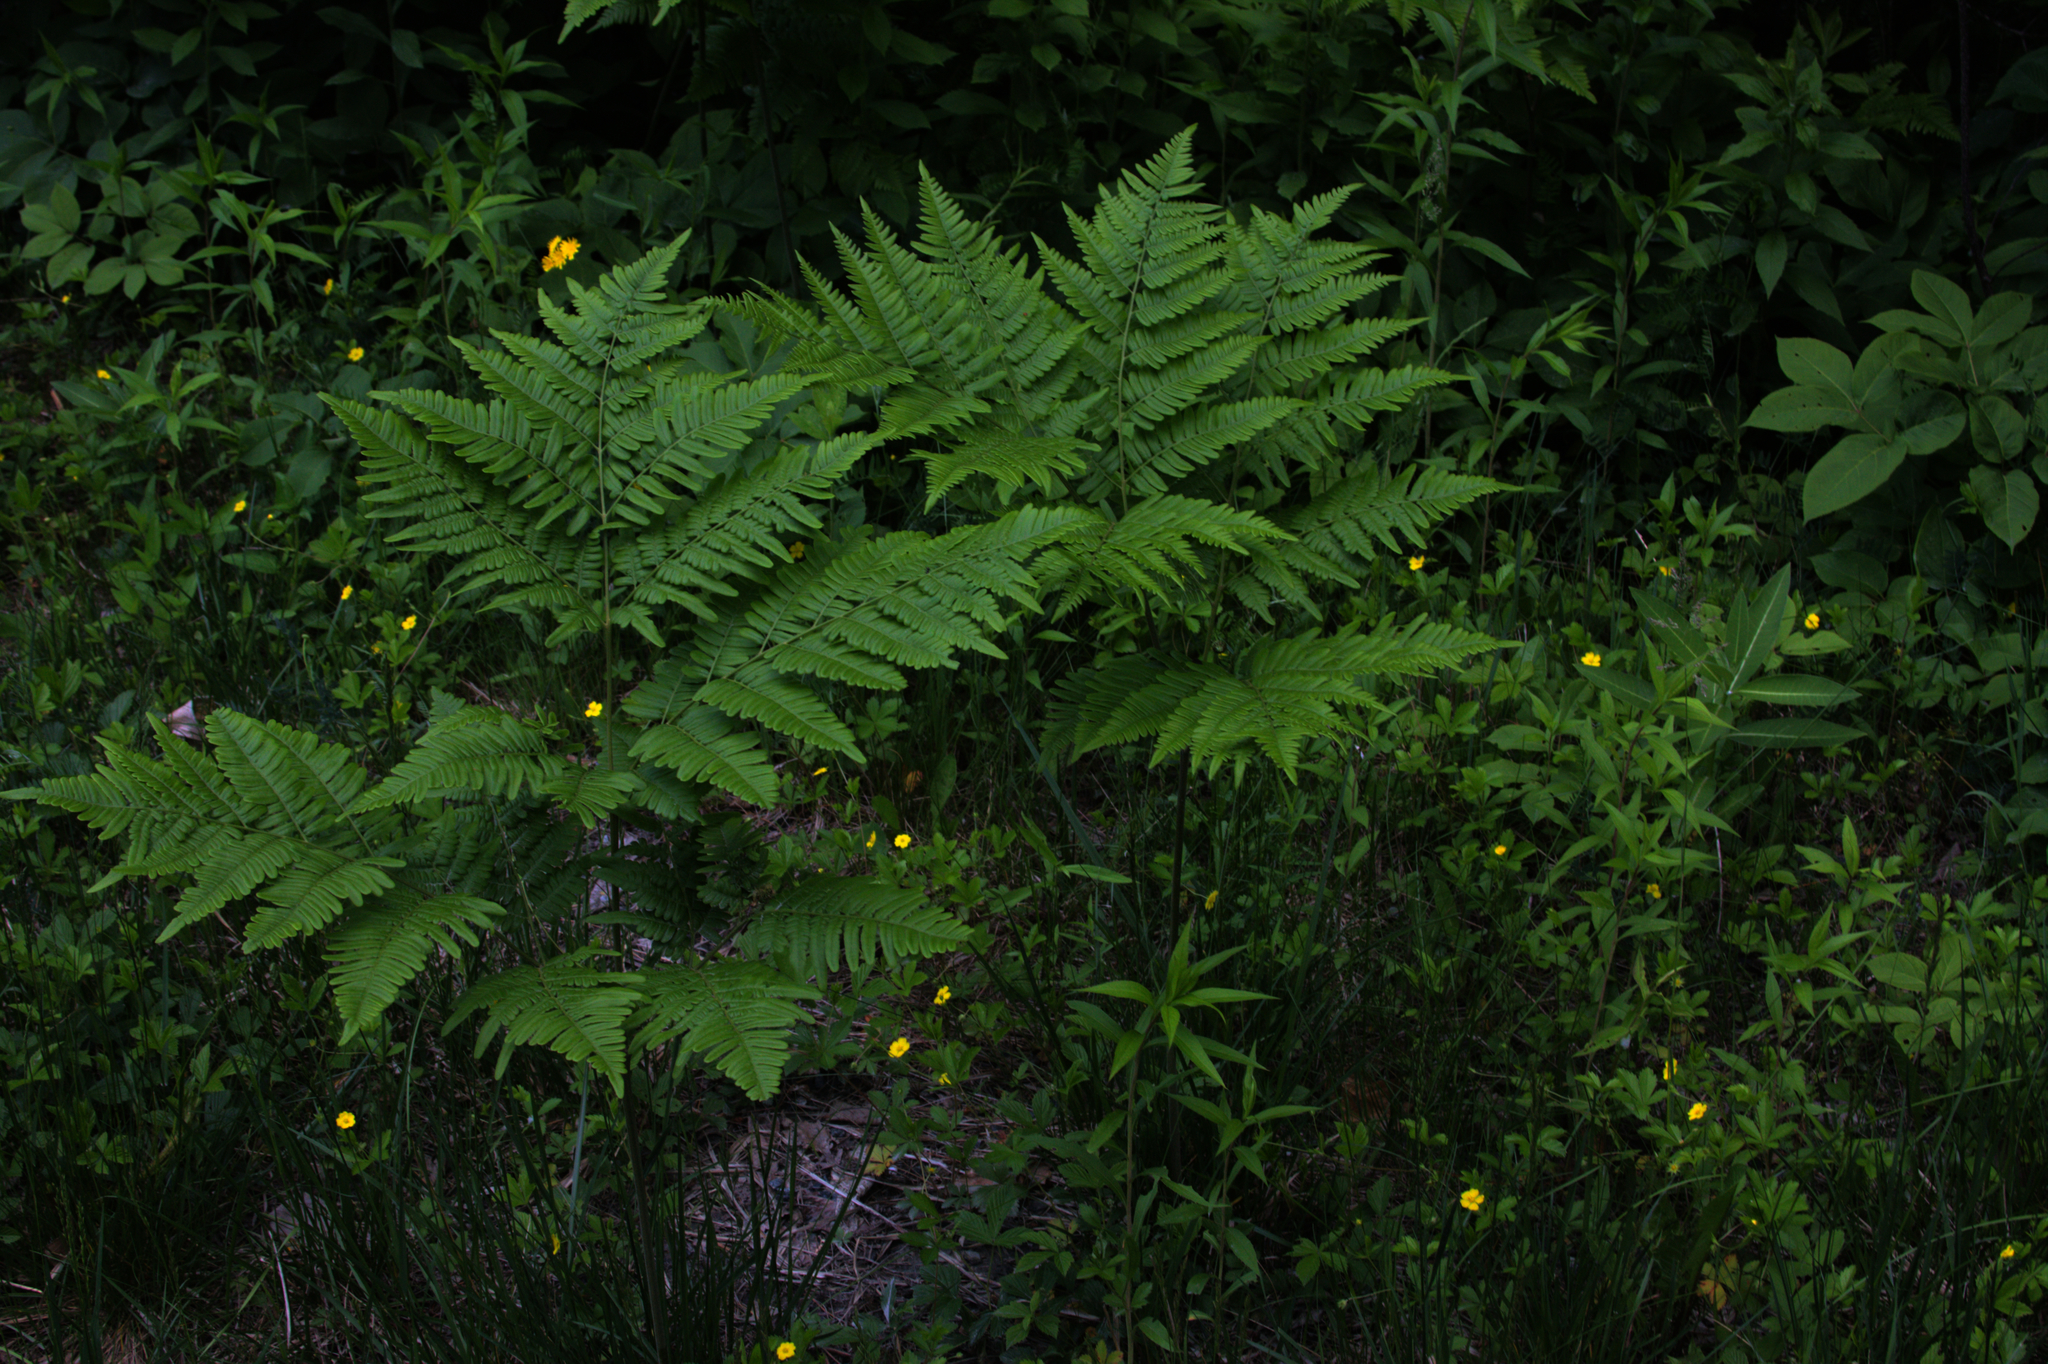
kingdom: Plantae
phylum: Tracheophyta
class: Polypodiopsida
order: Polypodiales
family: Dennstaedtiaceae
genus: Pteridium
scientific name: Pteridium aquilinum
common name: Bracken
